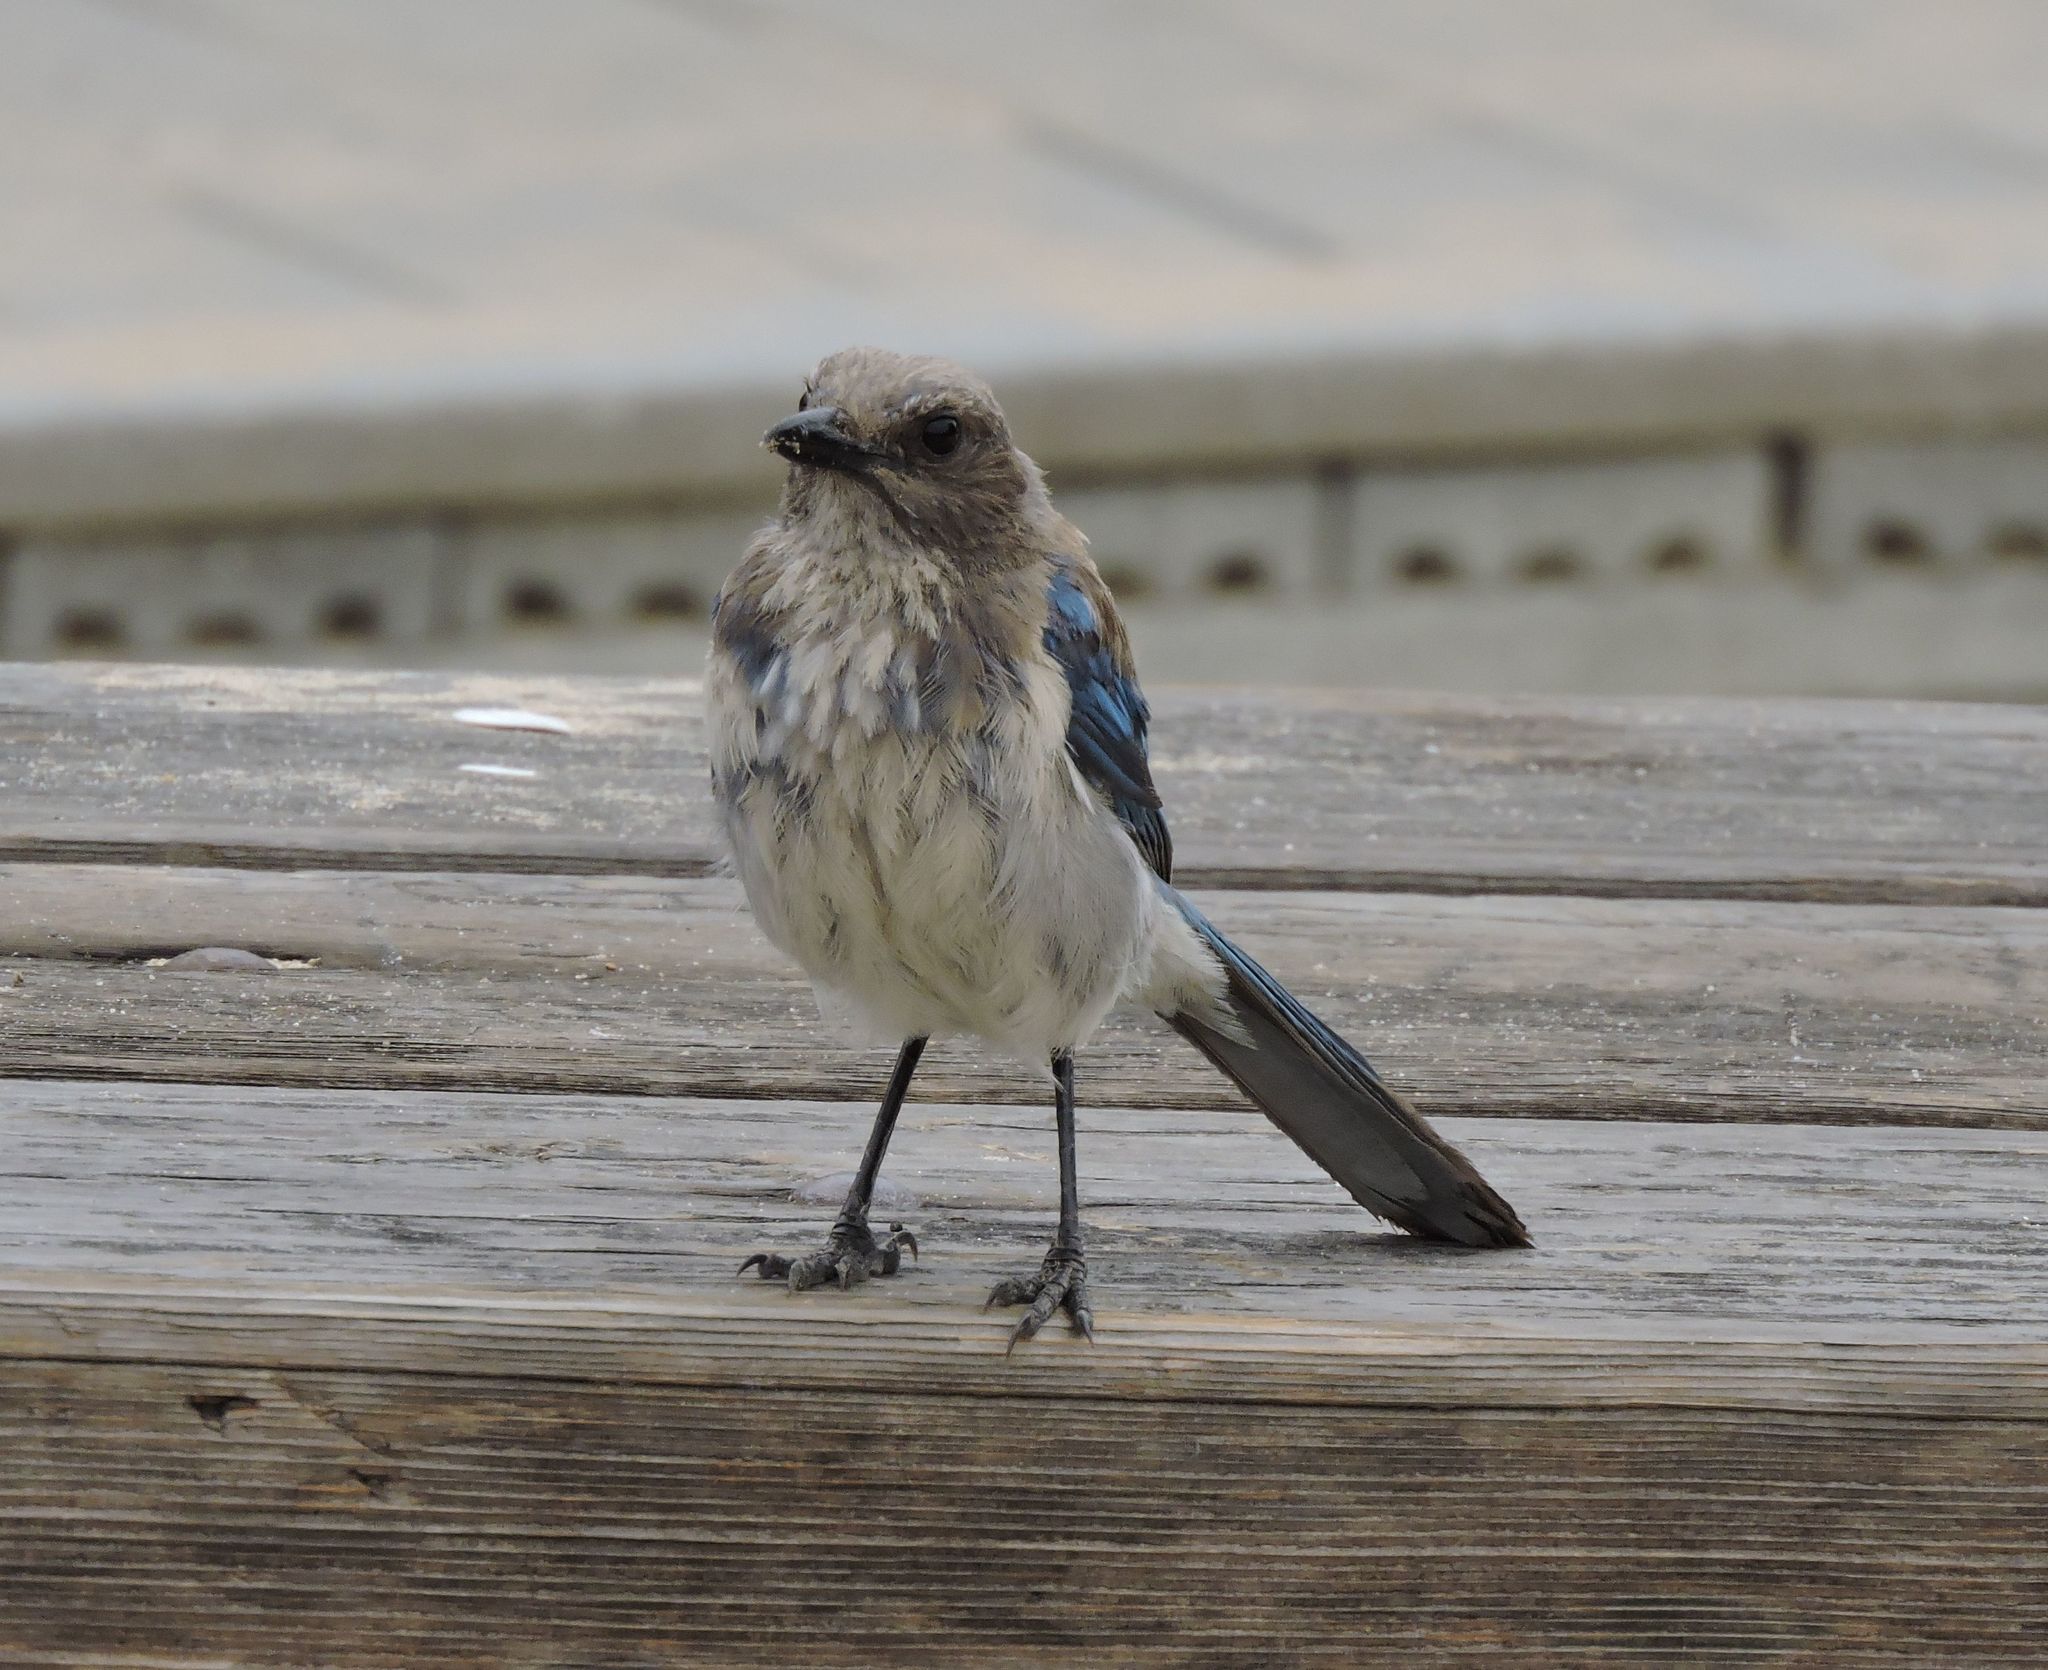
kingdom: Animalia
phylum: Chordata
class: Aves
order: Passeriformes
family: Corvidae
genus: Aphelocoma
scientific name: Aphelocoma californica
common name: California scrub-jay
